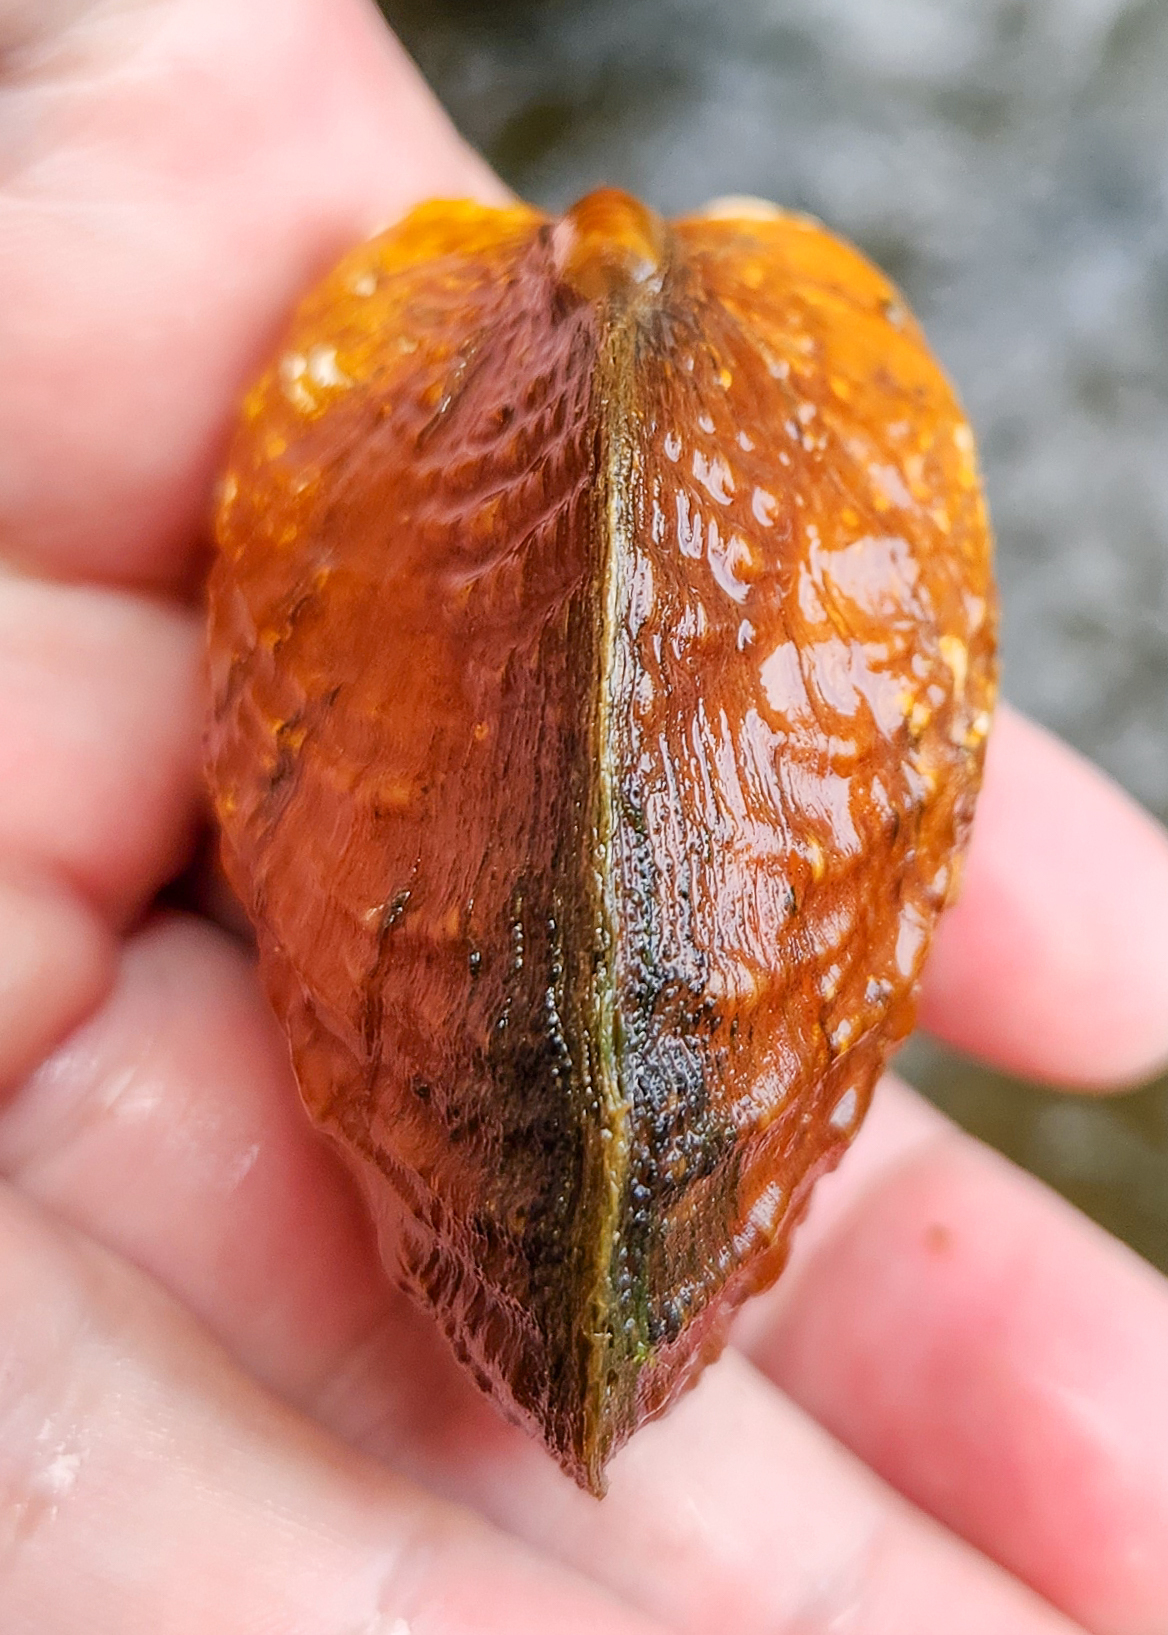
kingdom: Animalia
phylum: Mollusca
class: Bivalvia
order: Unionida
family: Unionidae
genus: Cyclonaias
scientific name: Cyclonaias kieneriana
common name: Coosa orb
